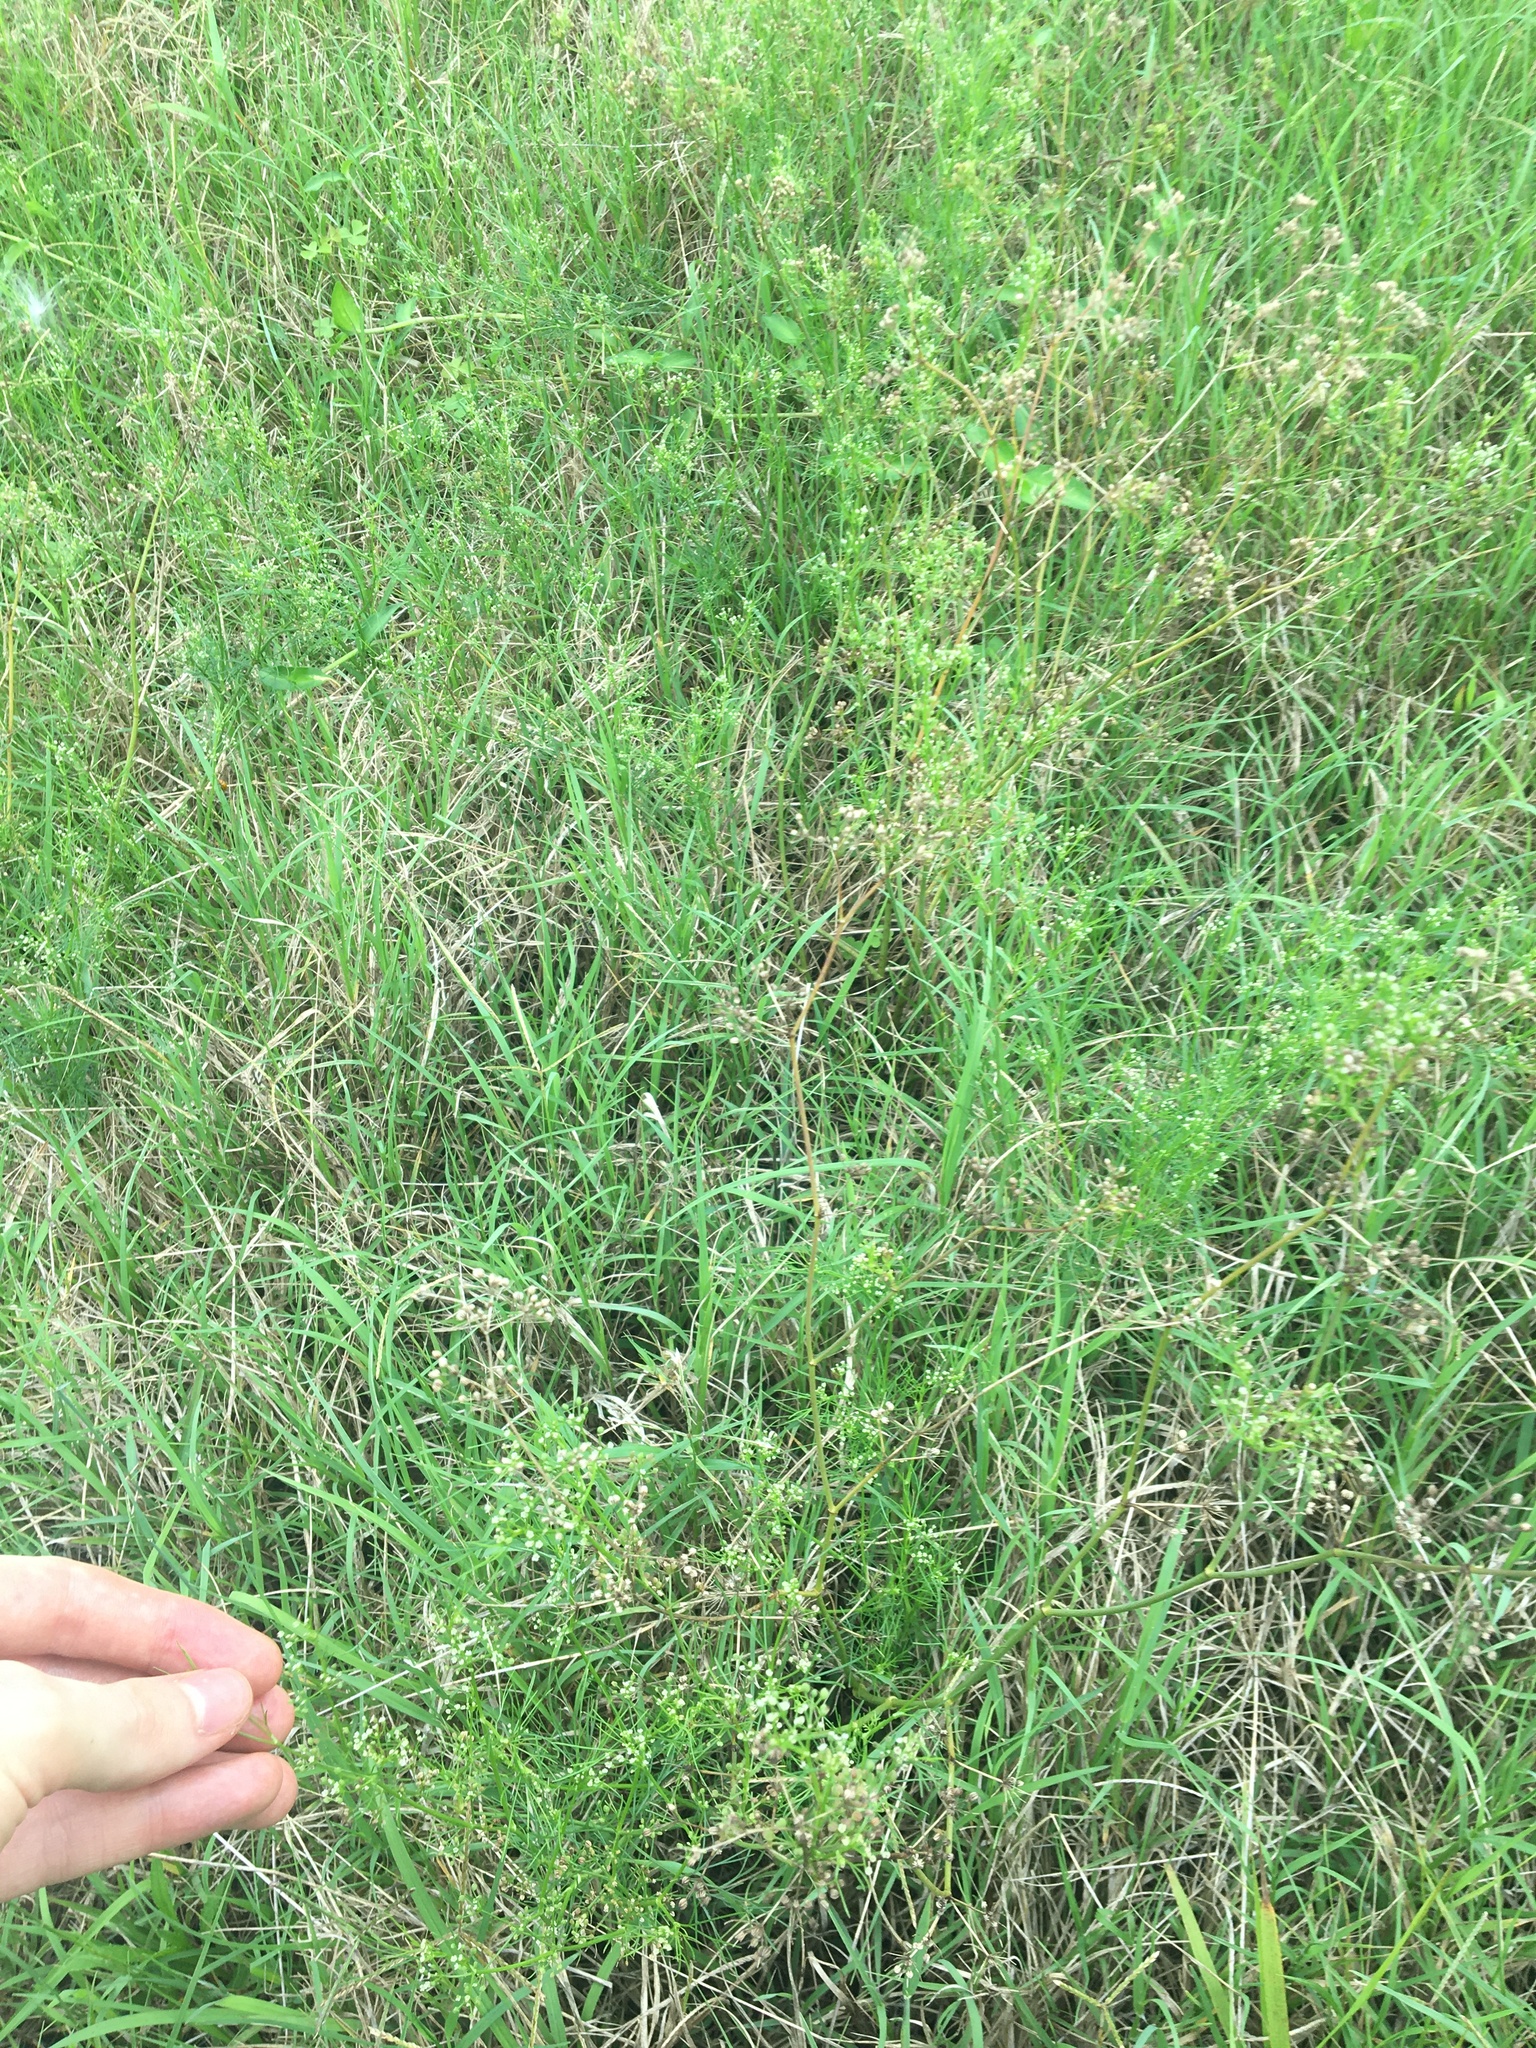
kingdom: Plantae
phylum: Tracheophyta
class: Magnoliopsida
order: Apiales
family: Apiaceae
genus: Cyclospermum
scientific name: Cyclospermum leptophyllum
